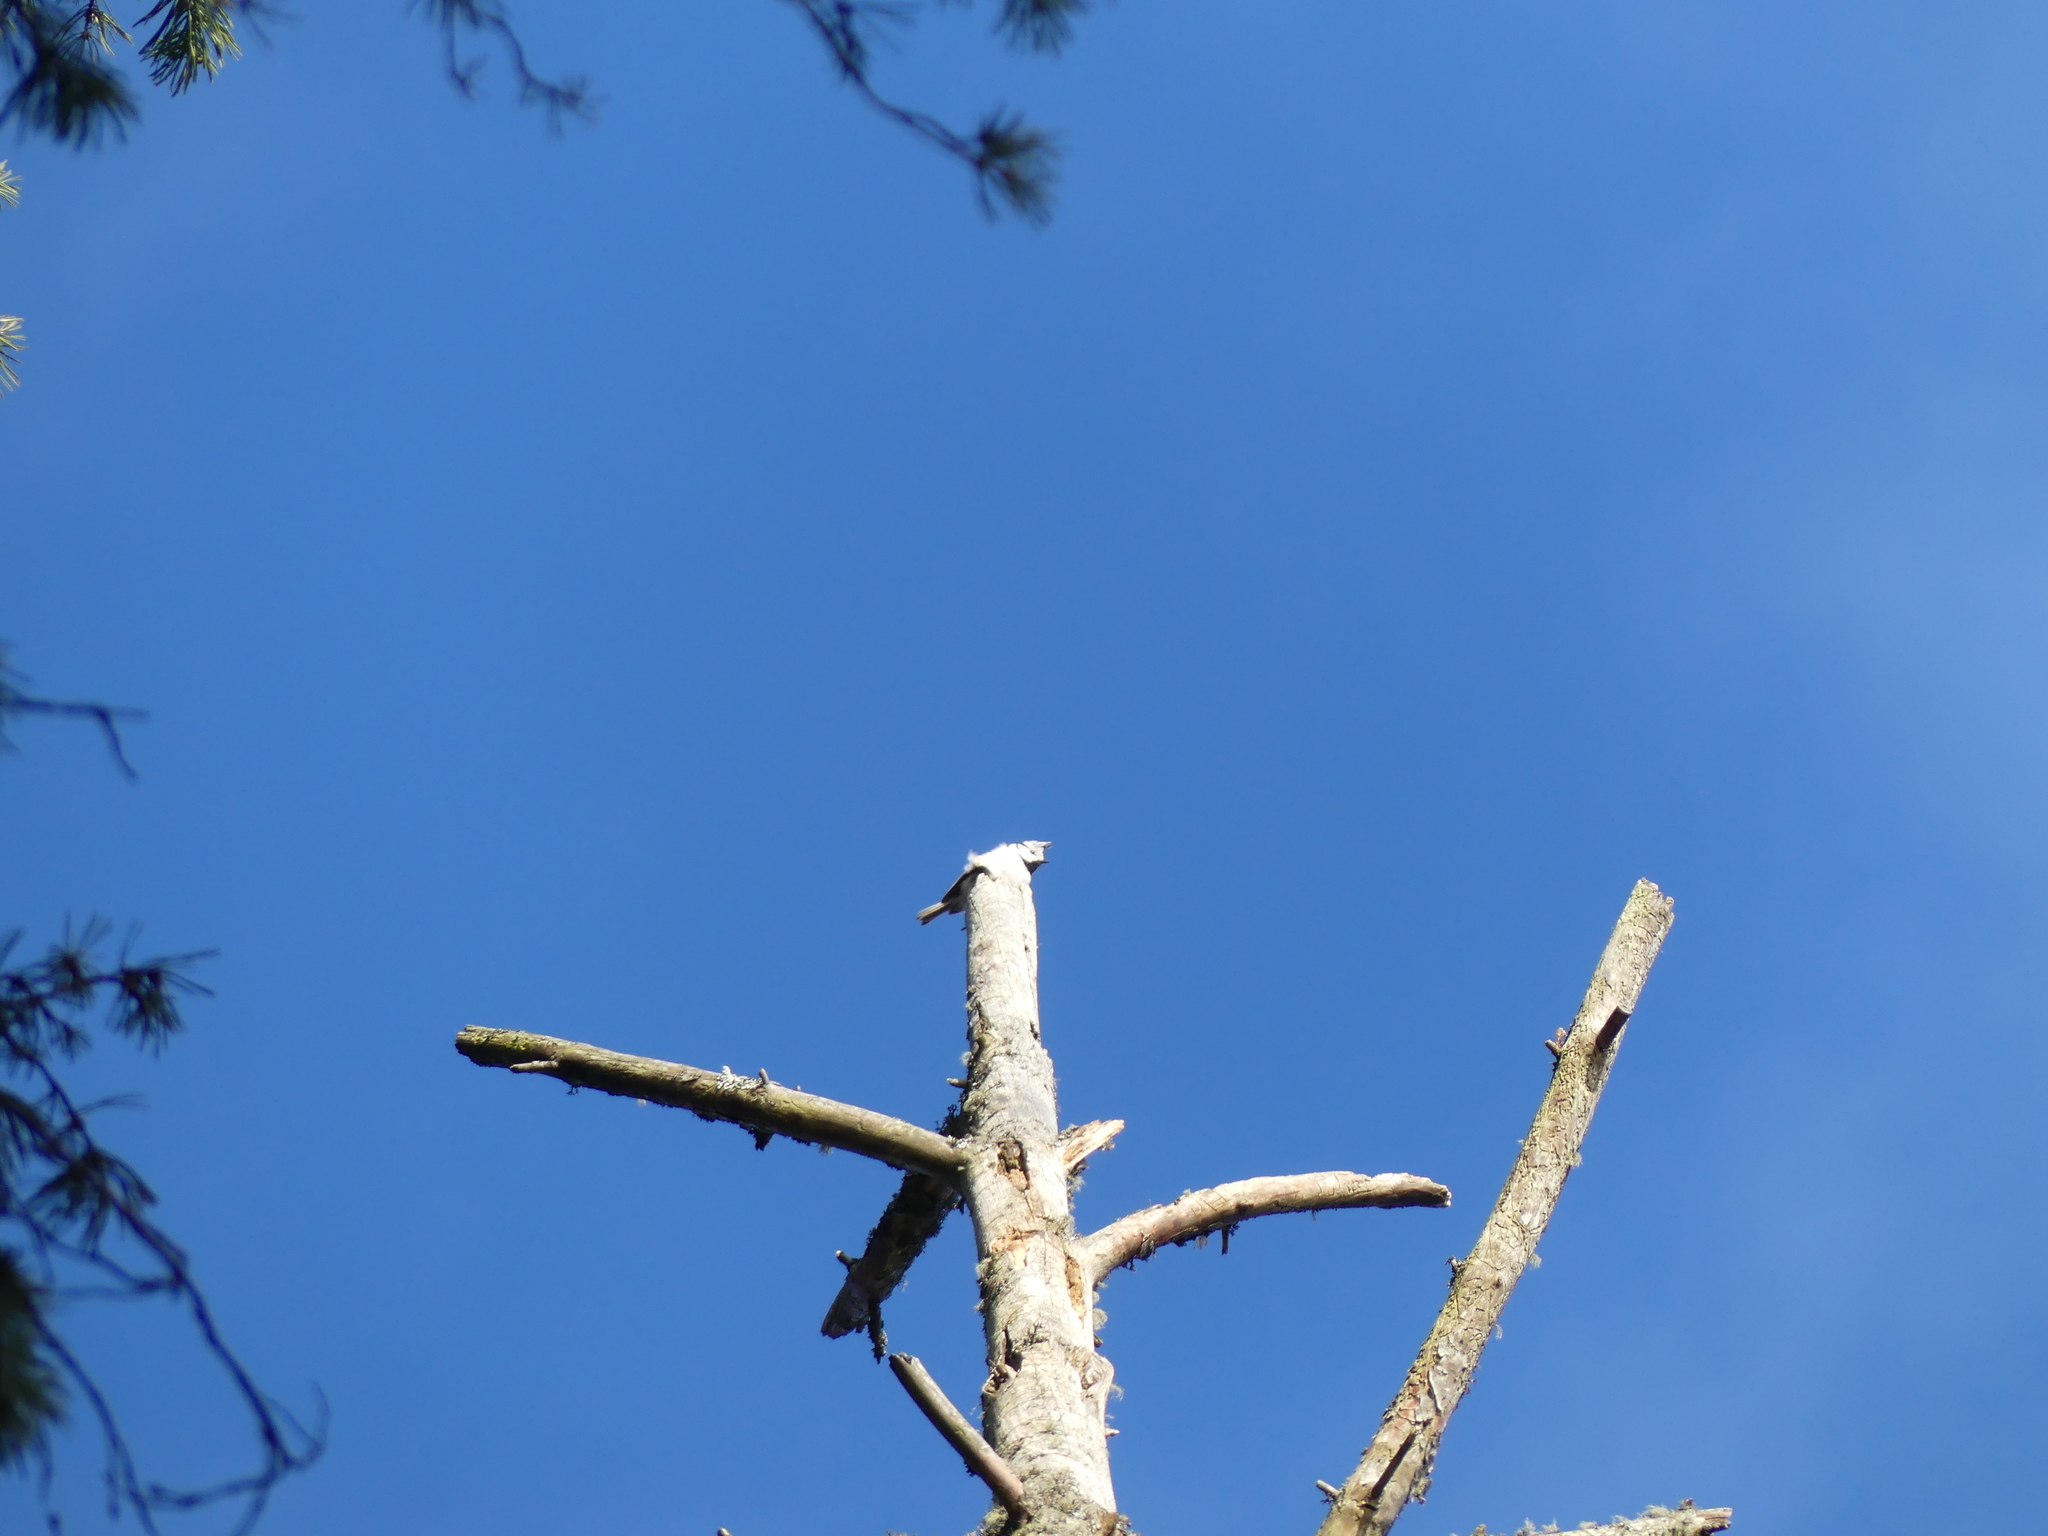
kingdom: Animalia
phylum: Chordata
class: Aves
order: Passeriformes
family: Paridae
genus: Lophophanes
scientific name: Lophophanes cristatus
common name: European crested tit
